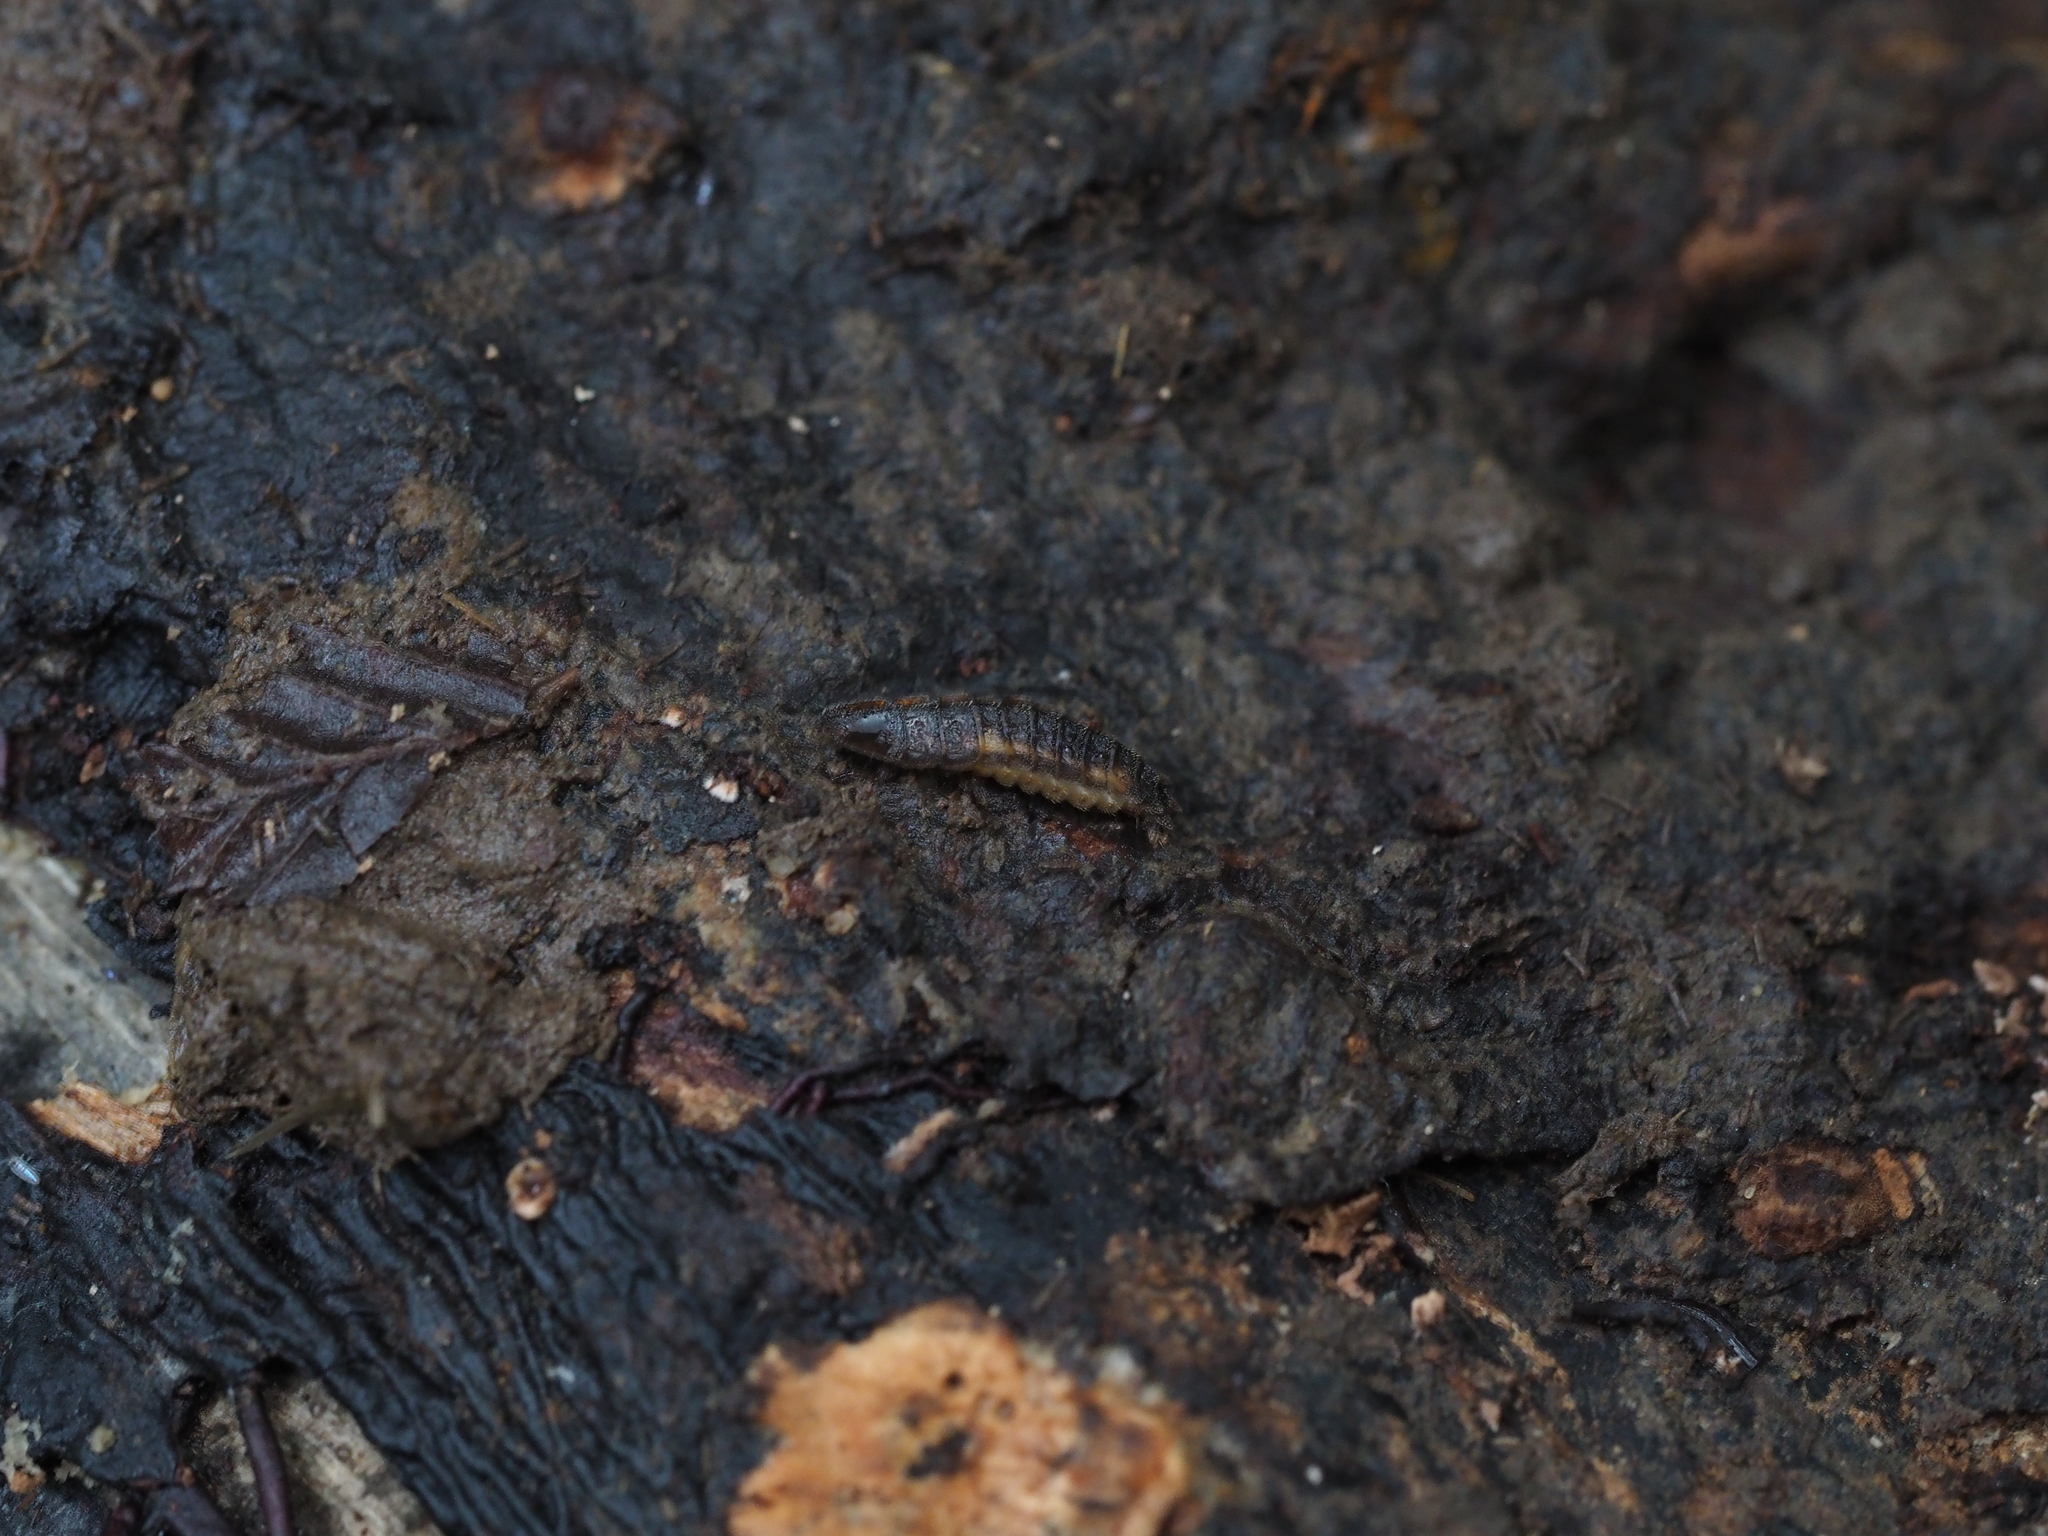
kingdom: Animalia
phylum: Arthropoda
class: Insecta
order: Coleoptera
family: Lampyridae
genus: Lamprohiza
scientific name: Lamprohiza splendidula
